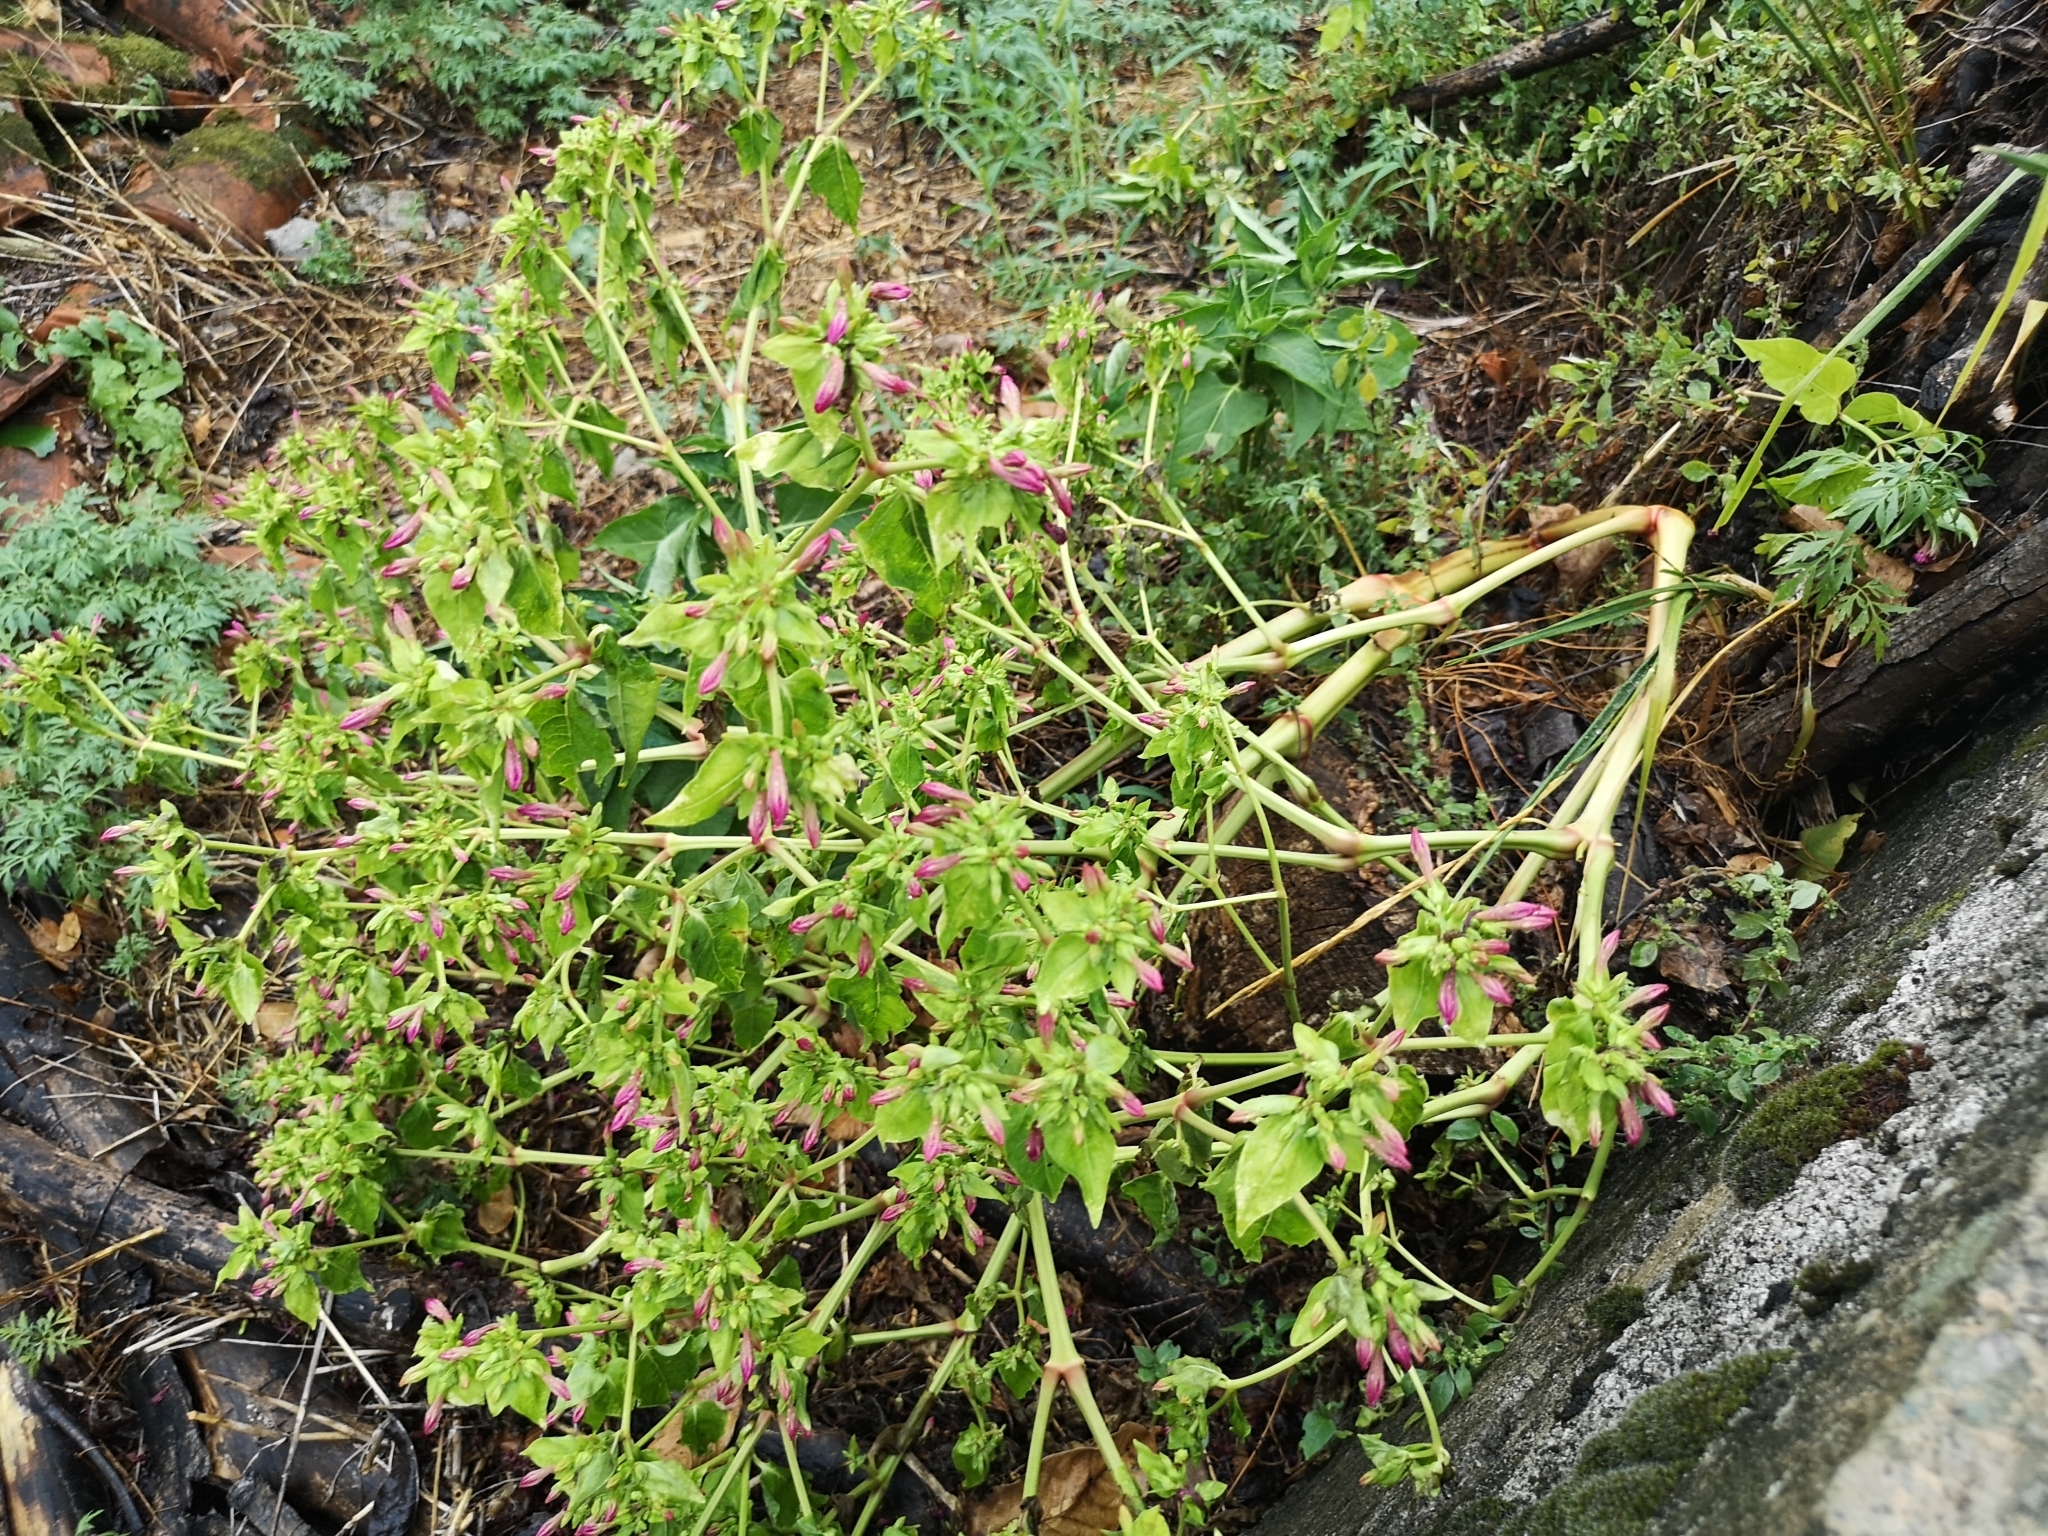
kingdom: Plantae
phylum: Tracheophyta
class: Magnoliopsida
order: Caryophyllales
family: Nyctaginaceae
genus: Mirabilis
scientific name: Mirabilis jalapa
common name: Marvel-of-peru
